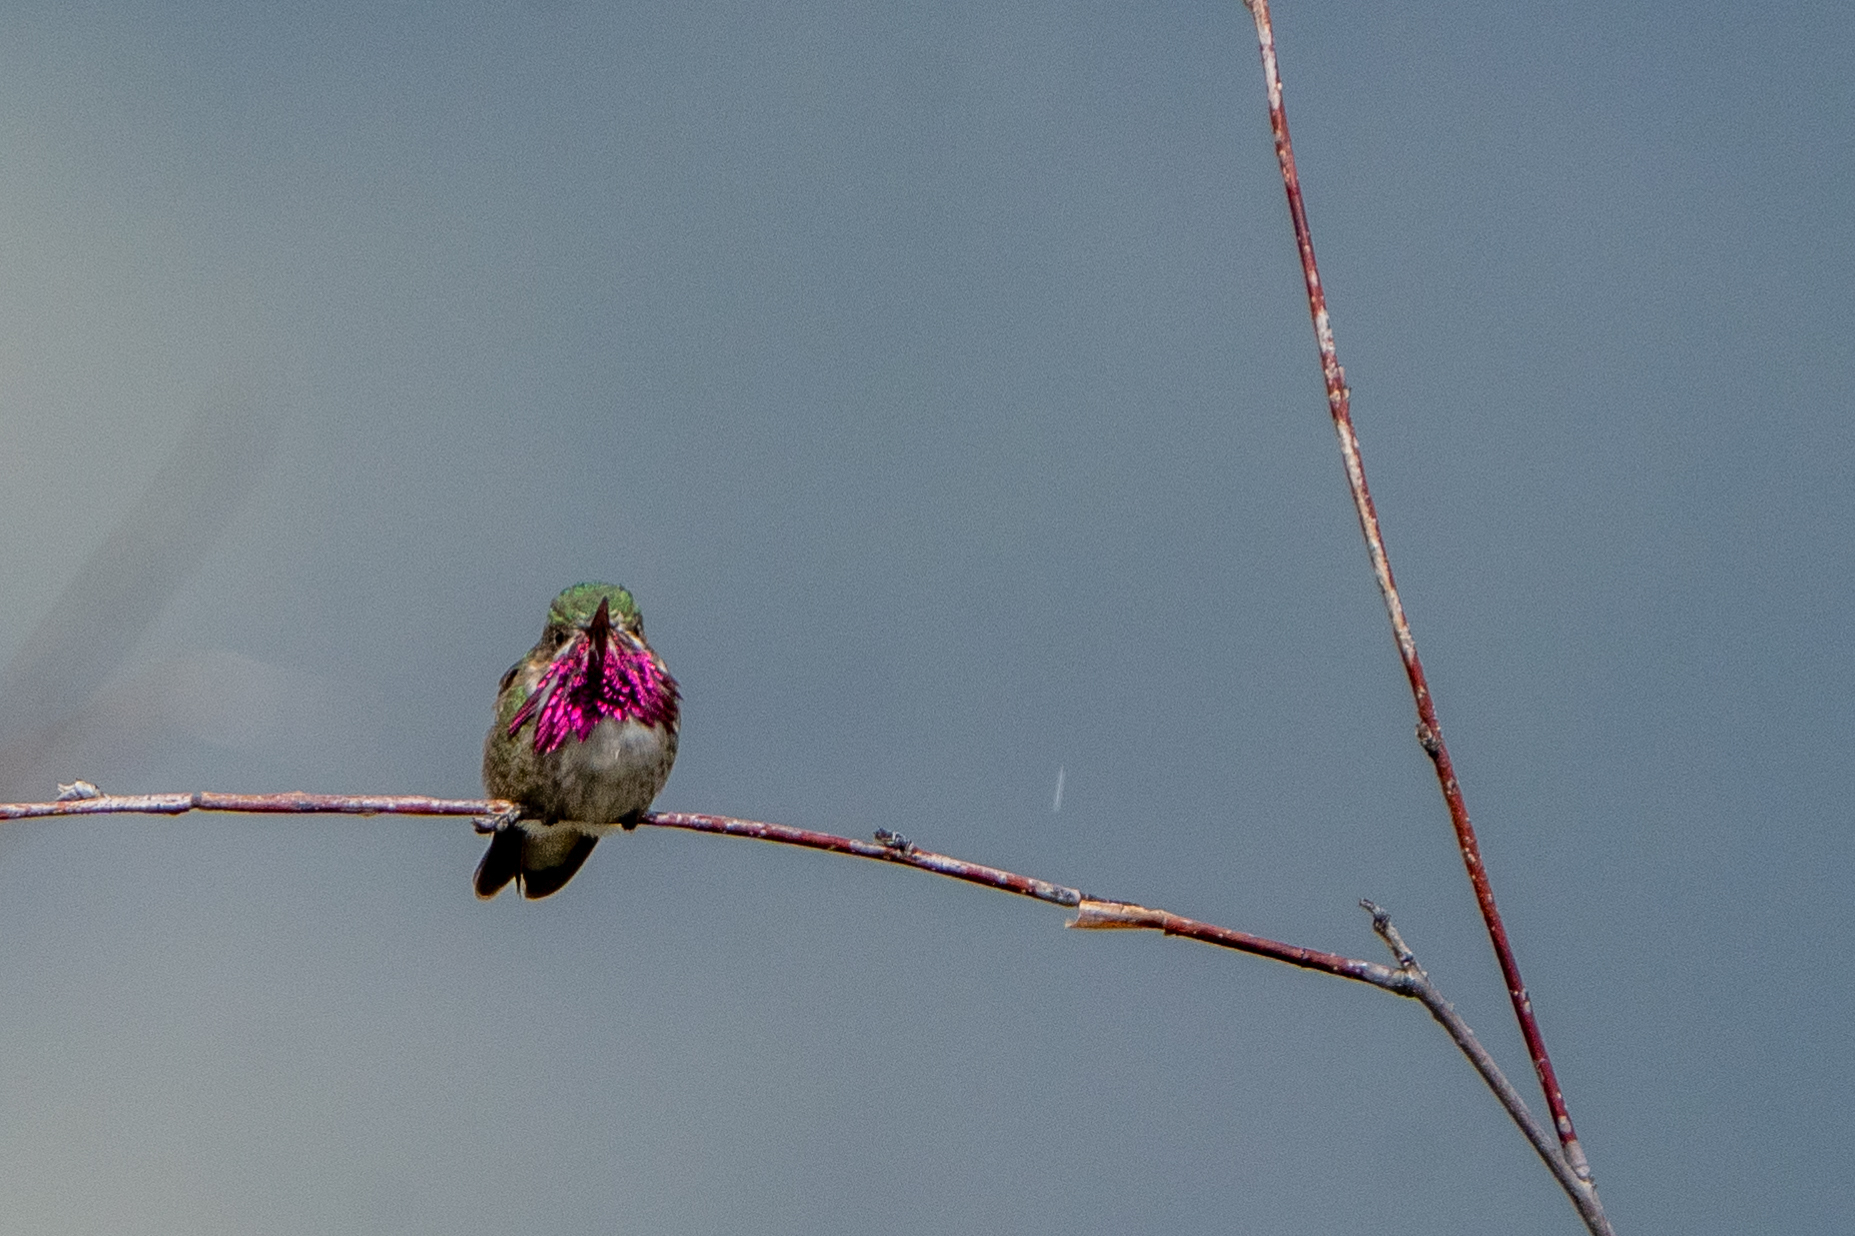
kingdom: Animalia
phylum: Chordata
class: Aves
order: Apodiformes
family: Trochilidae
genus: Selasphorus
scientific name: Selasphorus calliope
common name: Calliope hummingbird
